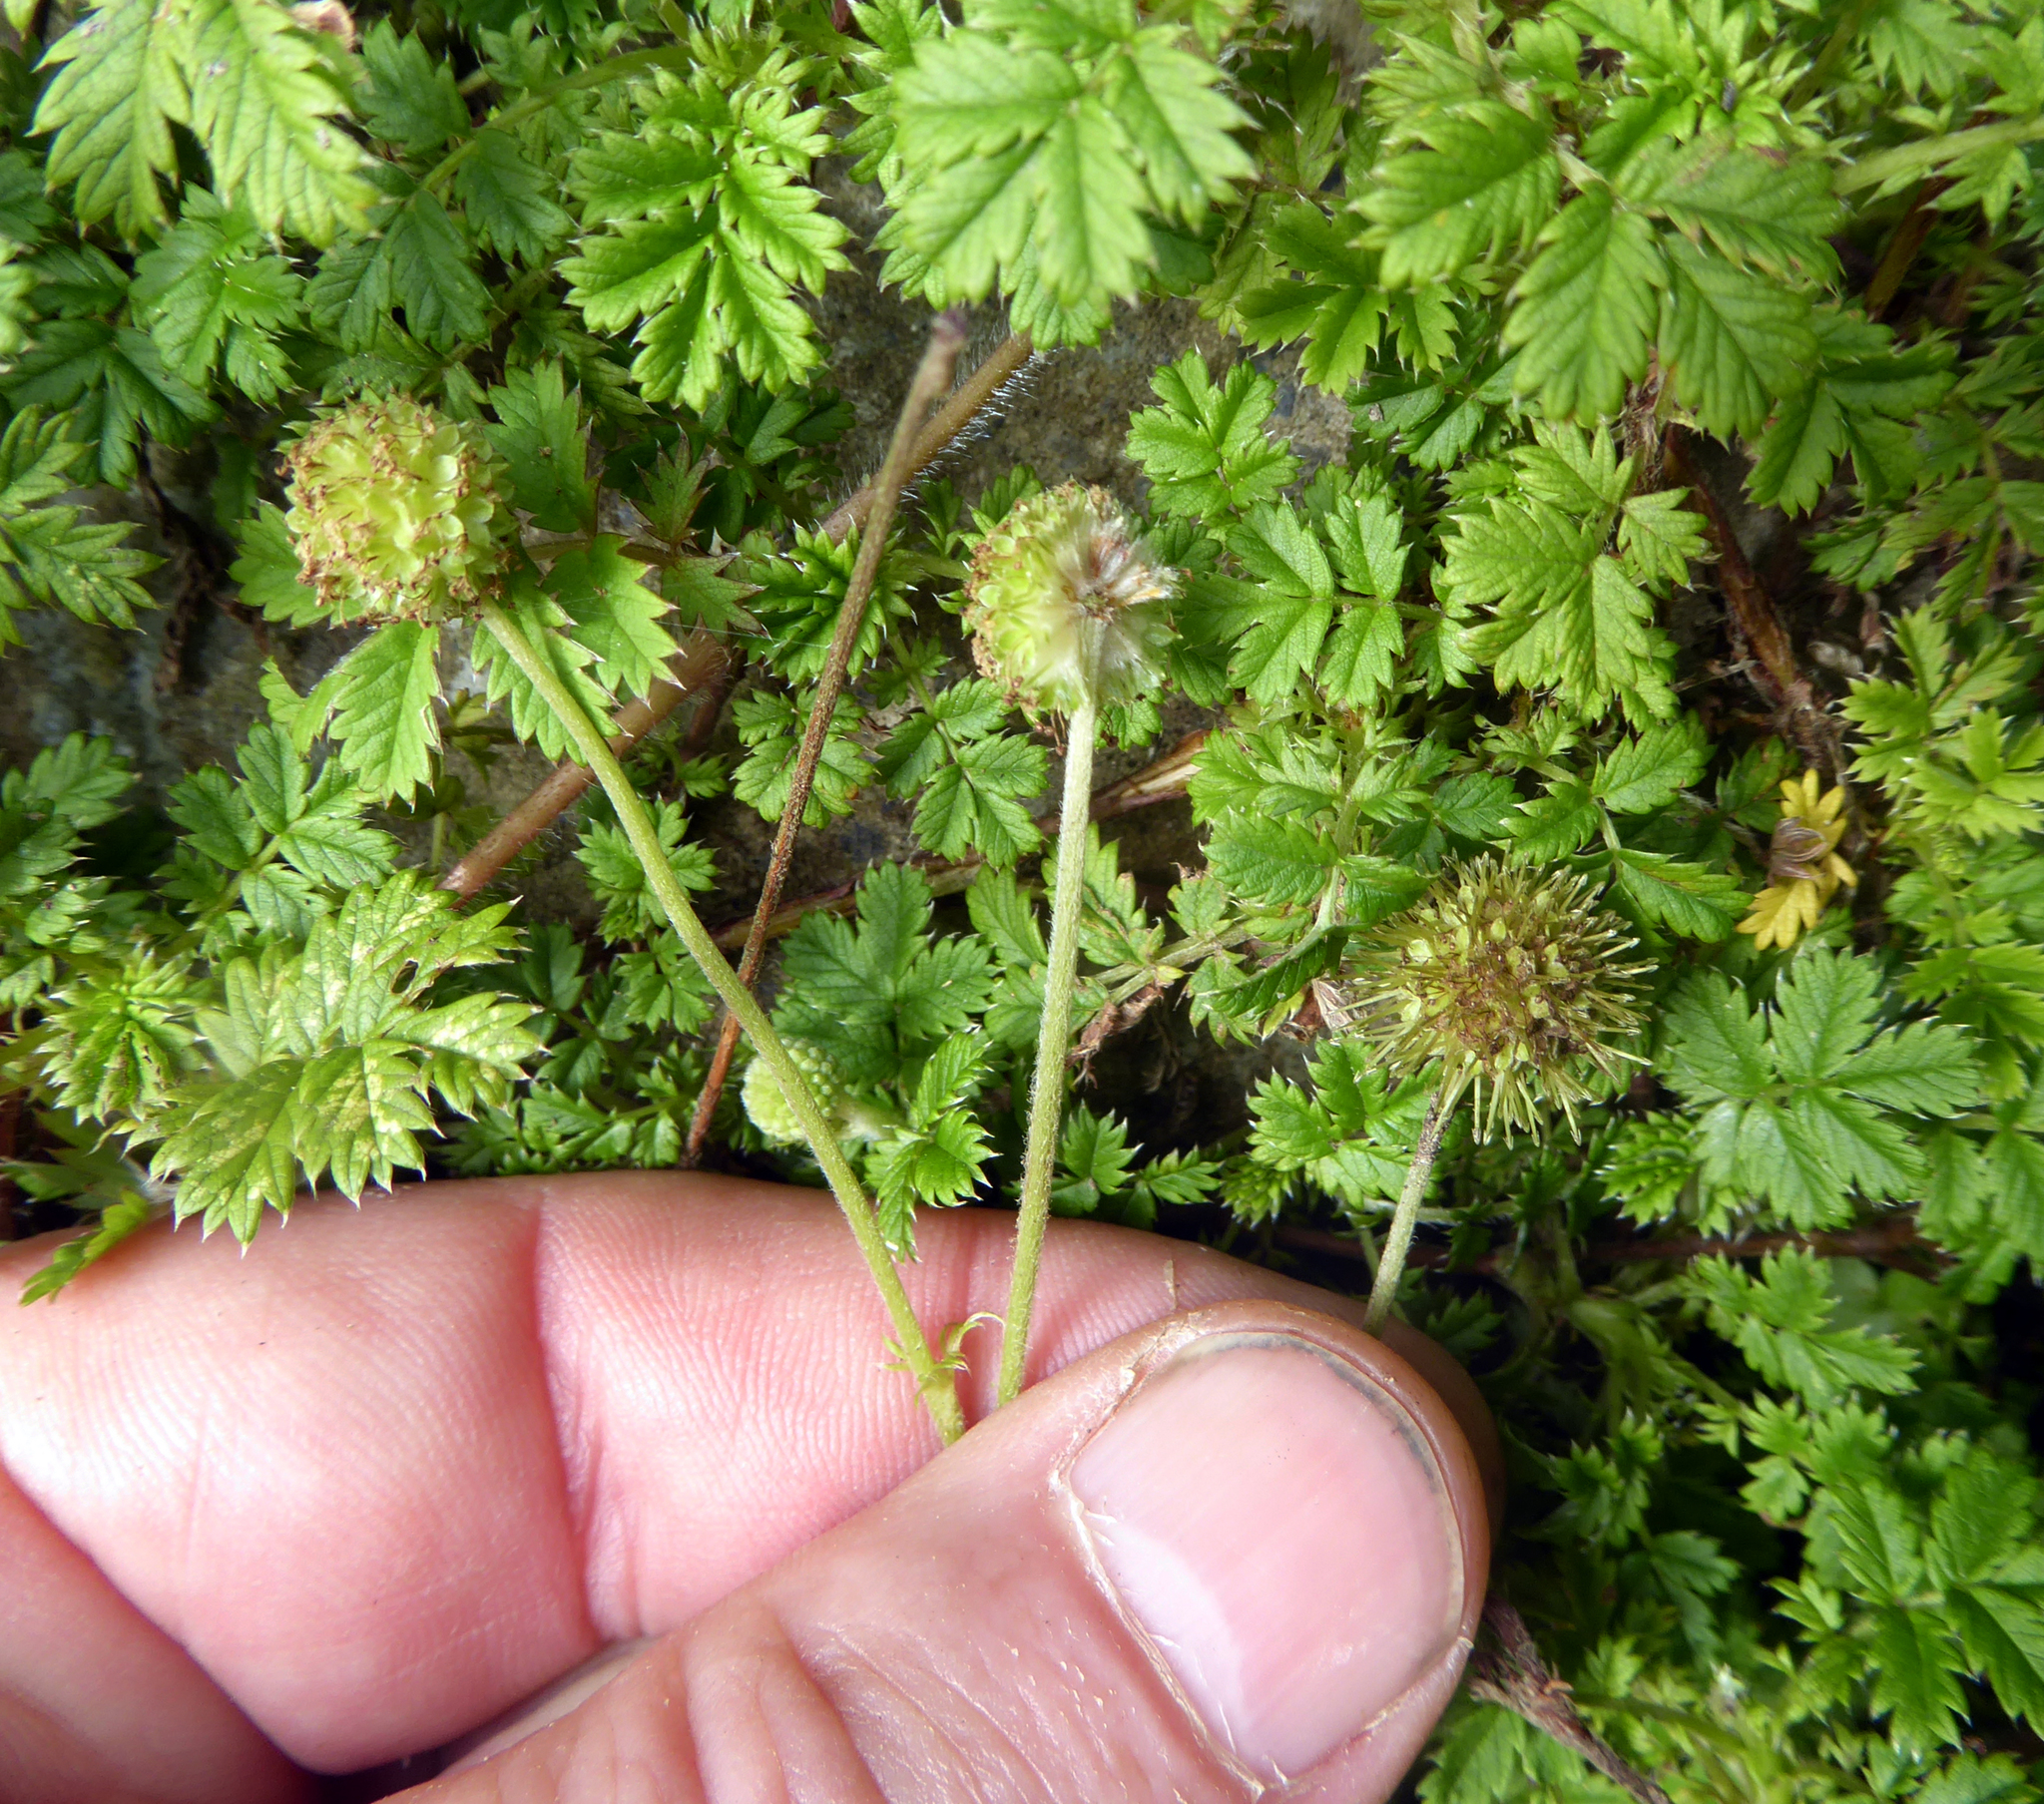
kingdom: Plantae
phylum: Tracheophyta
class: Magnoliopsida
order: Rosales
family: Rosaceae
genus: Acaena
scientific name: Acaena anserinifolia
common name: Bronze pirri-pirri-bur
